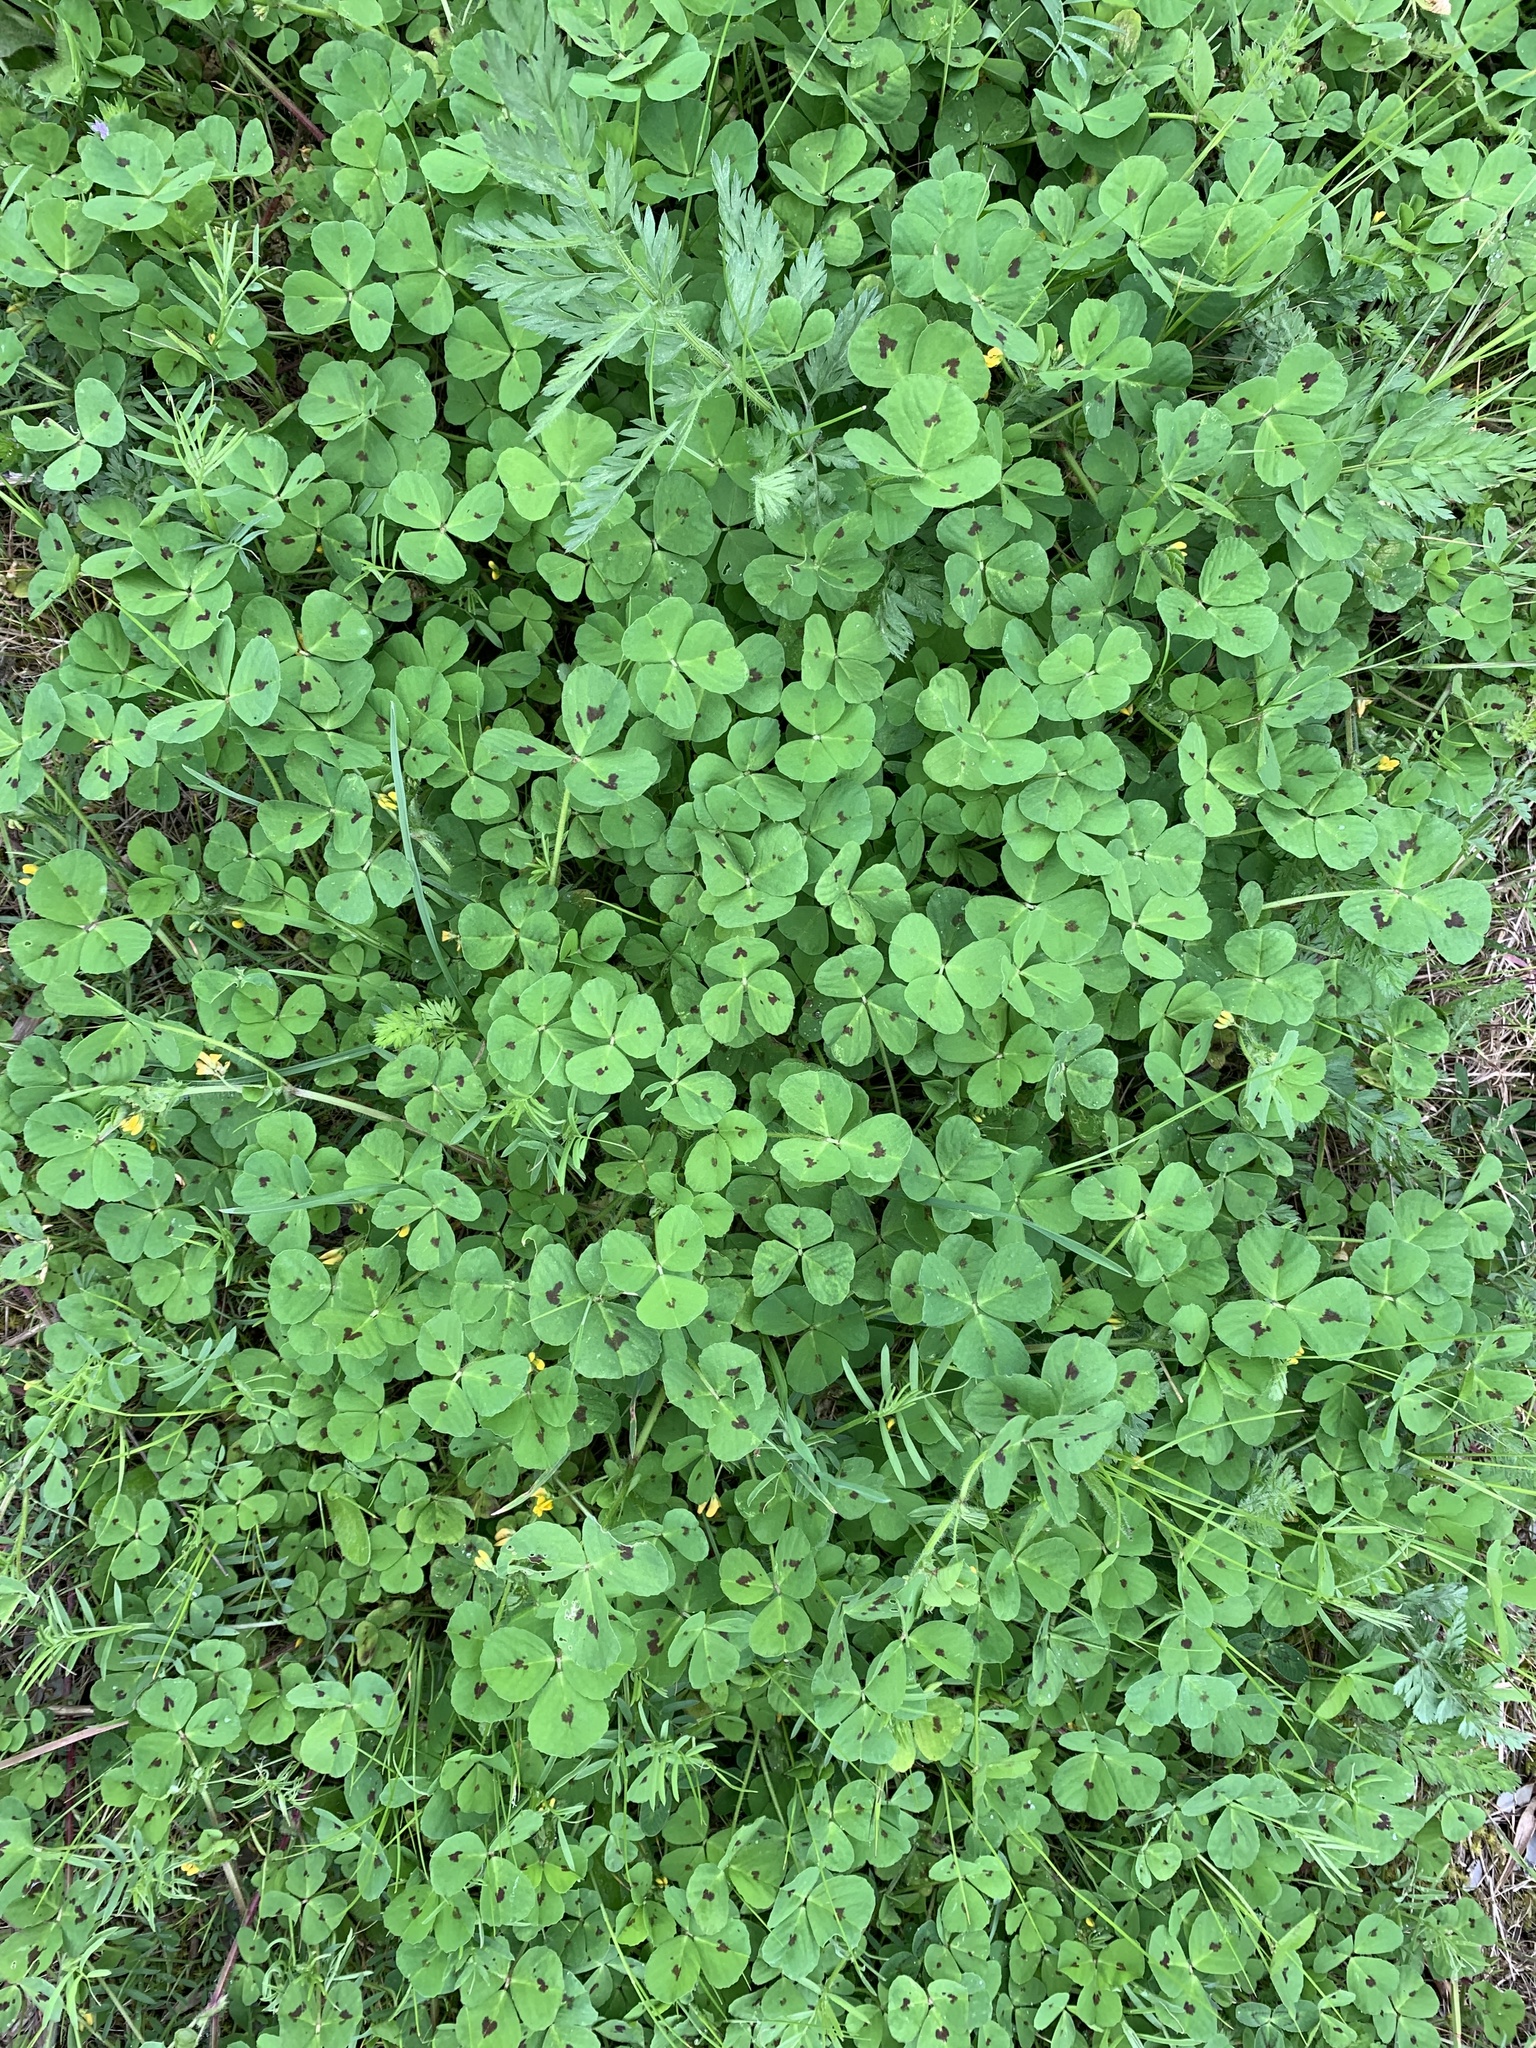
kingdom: Plantae
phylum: Tracheophyta
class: Magnoliopsida
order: Fabales
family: Fabaceae
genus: Medicago
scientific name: Medicago arabica
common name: Spotted medick
